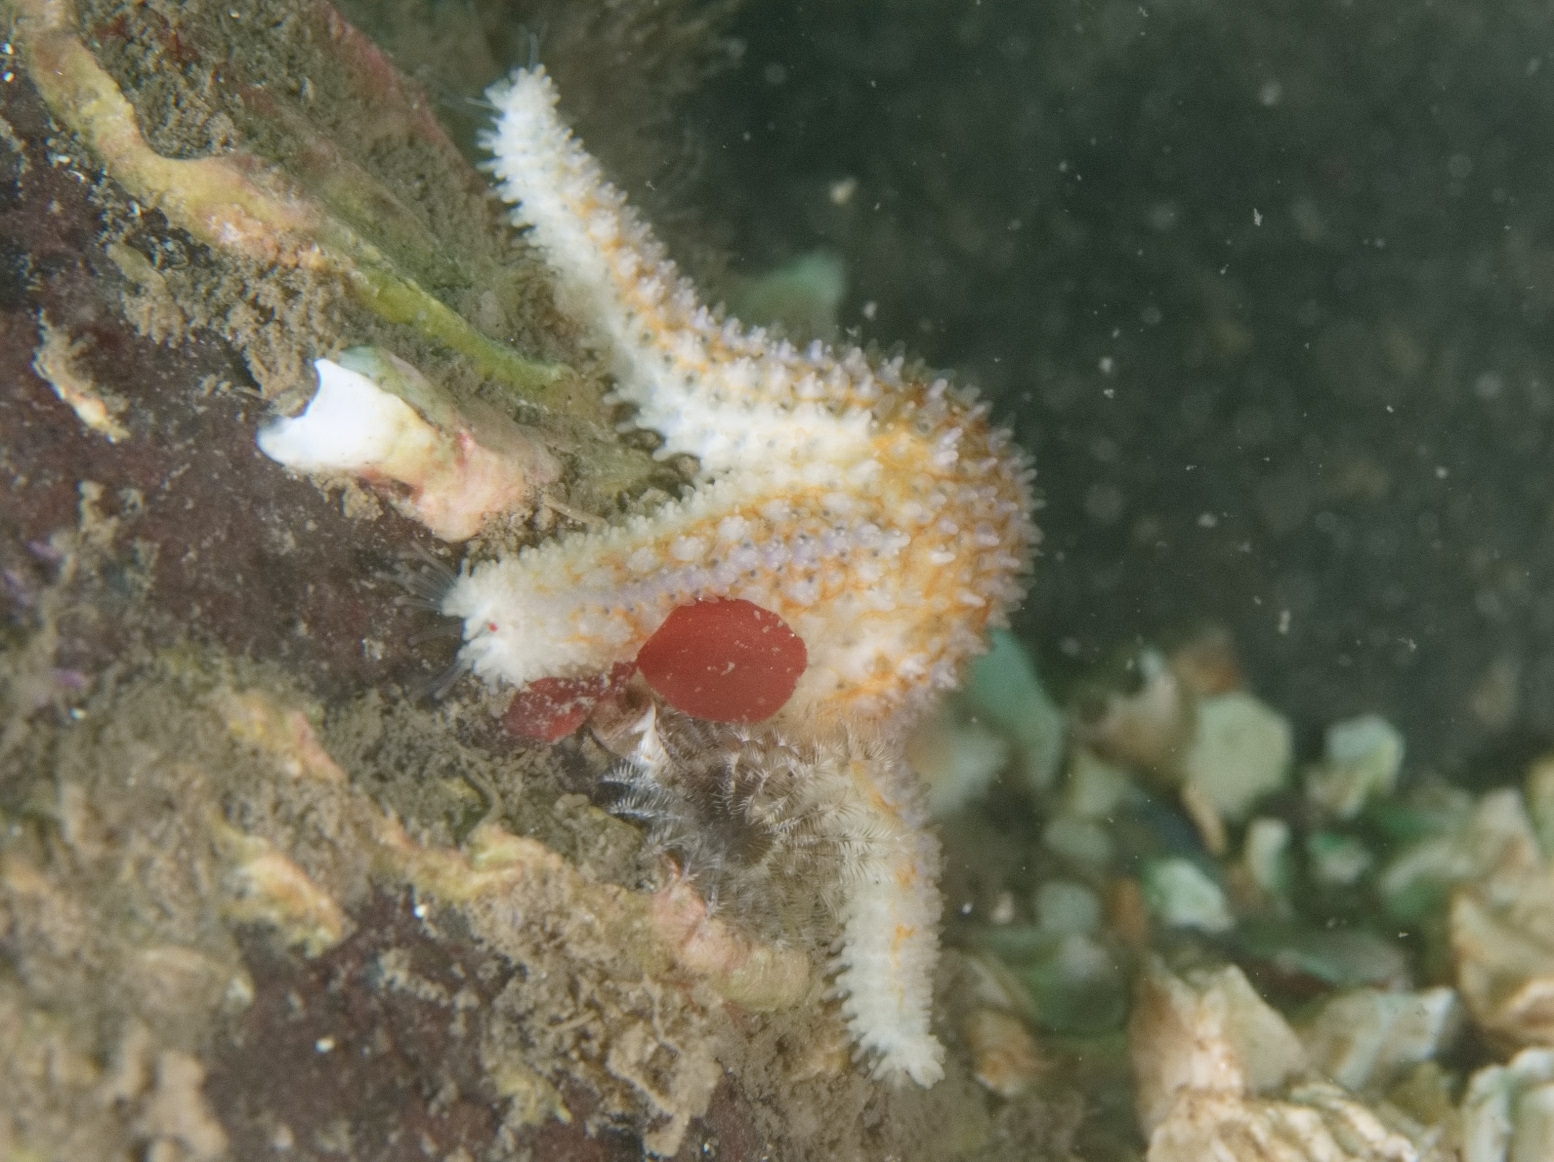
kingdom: Animalia
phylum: Echinodermata
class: Asteroidea
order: Forcipulatida
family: Asteriidae
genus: Asterias
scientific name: Asterias rubens
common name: Common starfish
